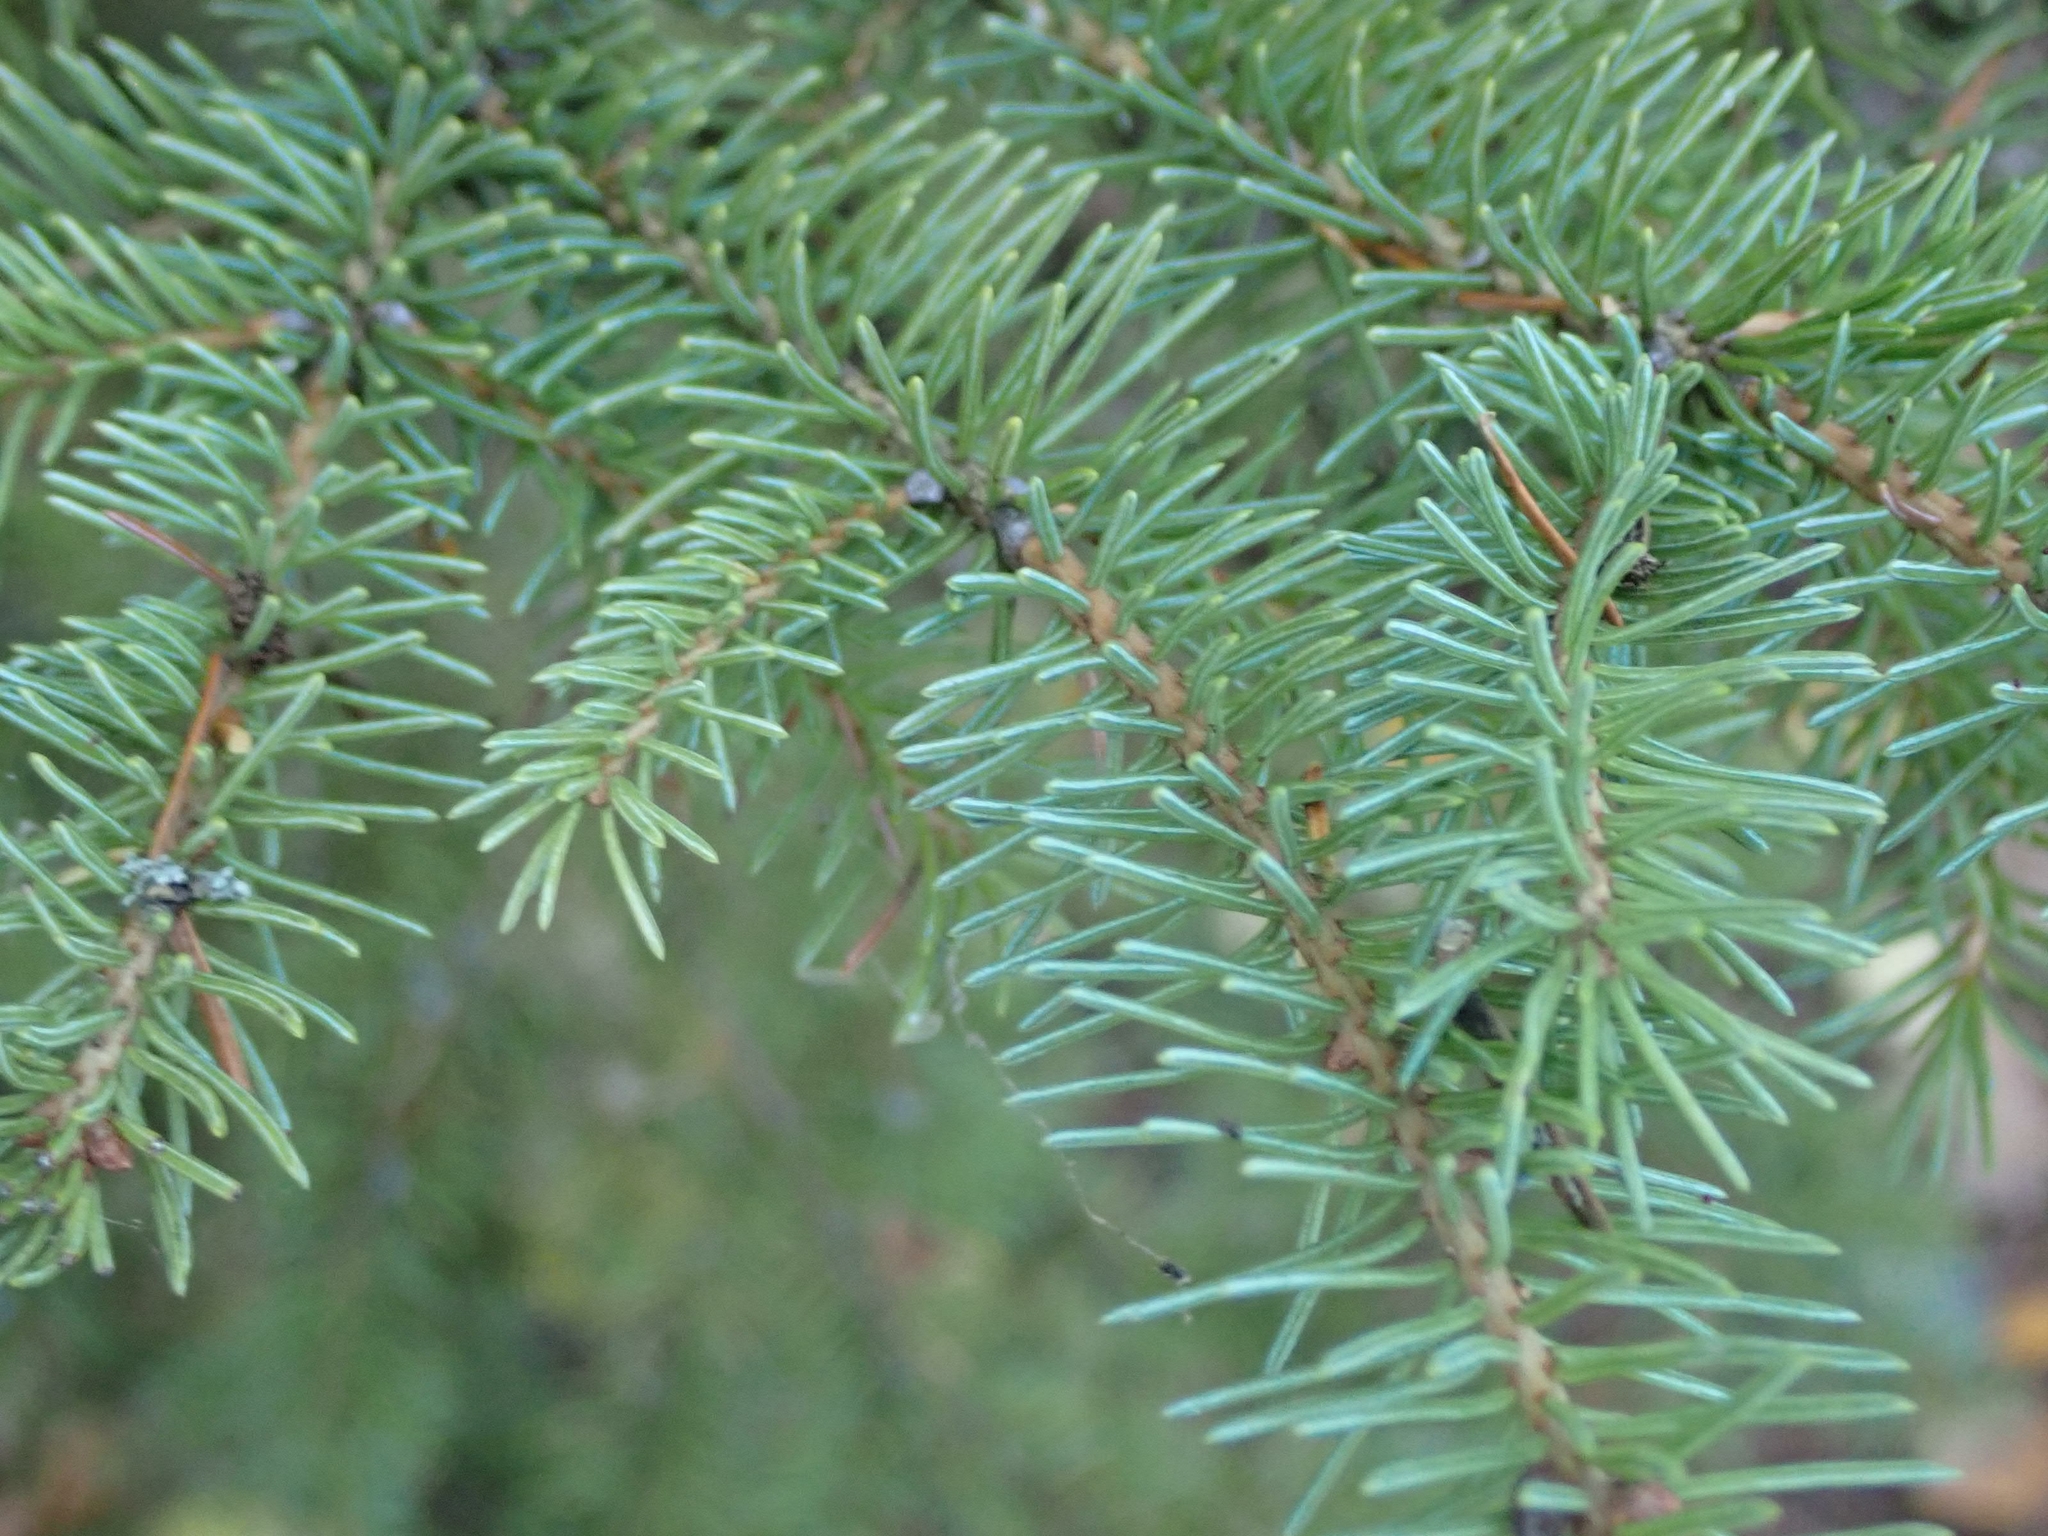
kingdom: Plantae
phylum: Tracheophyta
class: Pinopsida
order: Pinales
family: Pinaceae
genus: Picea
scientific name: Picea glauca
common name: White spruce
